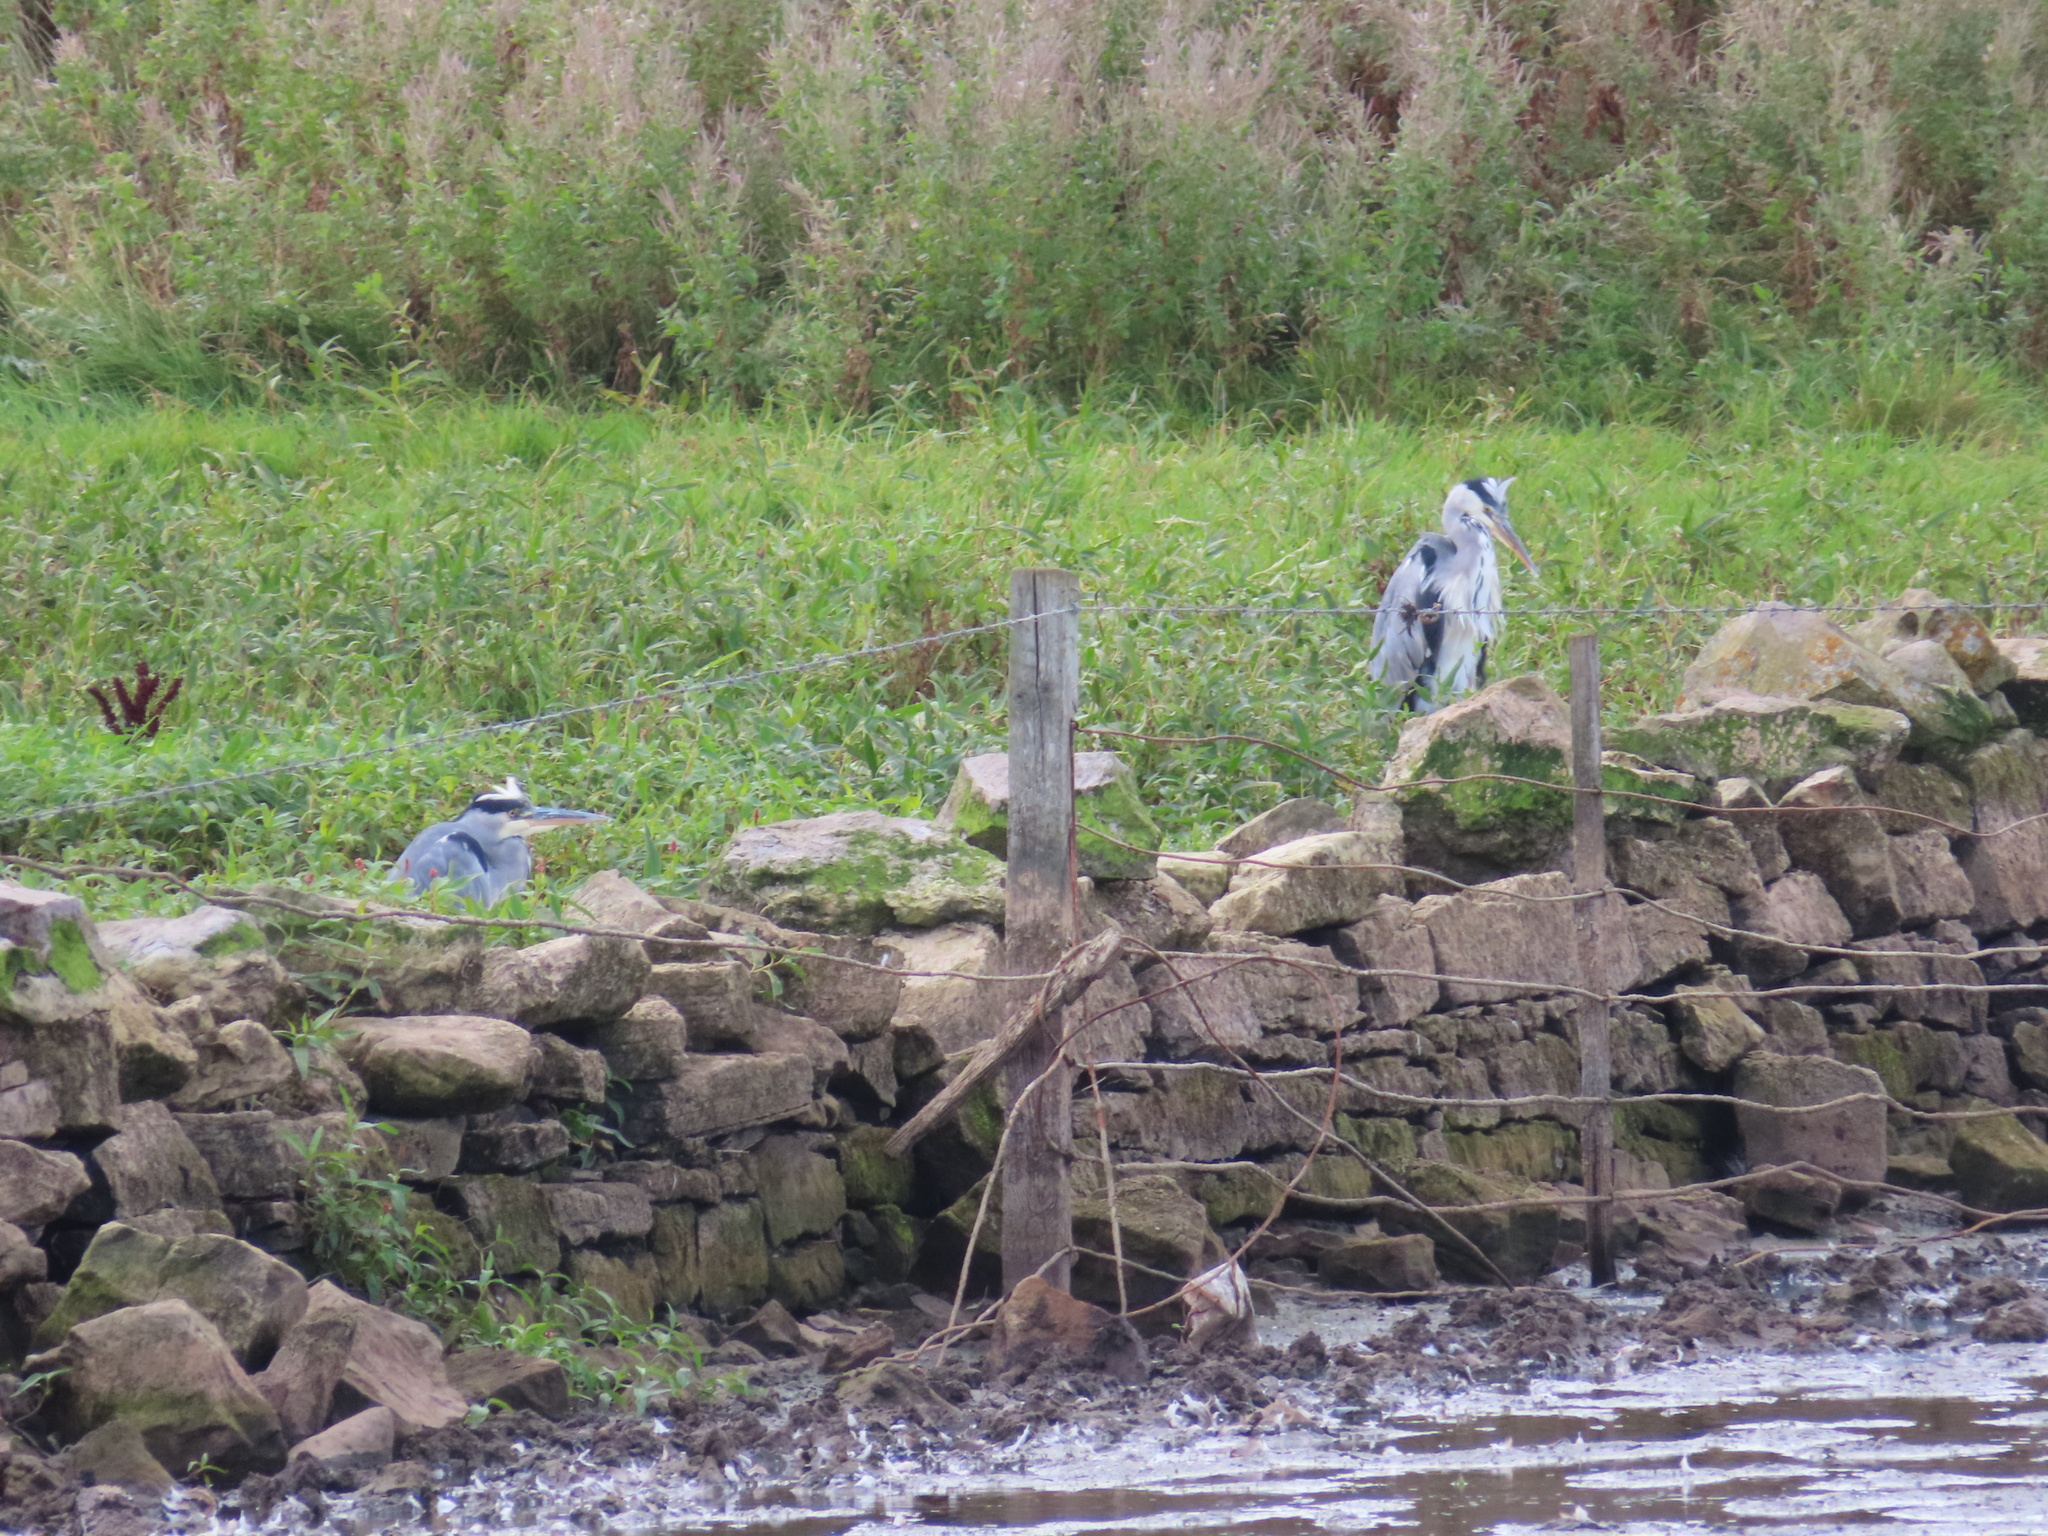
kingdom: Animalia
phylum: Chordata
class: Aves
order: Pelecaniformes
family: Ardeidae
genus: Ardea
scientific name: Ardea cinerea
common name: Grey heron
